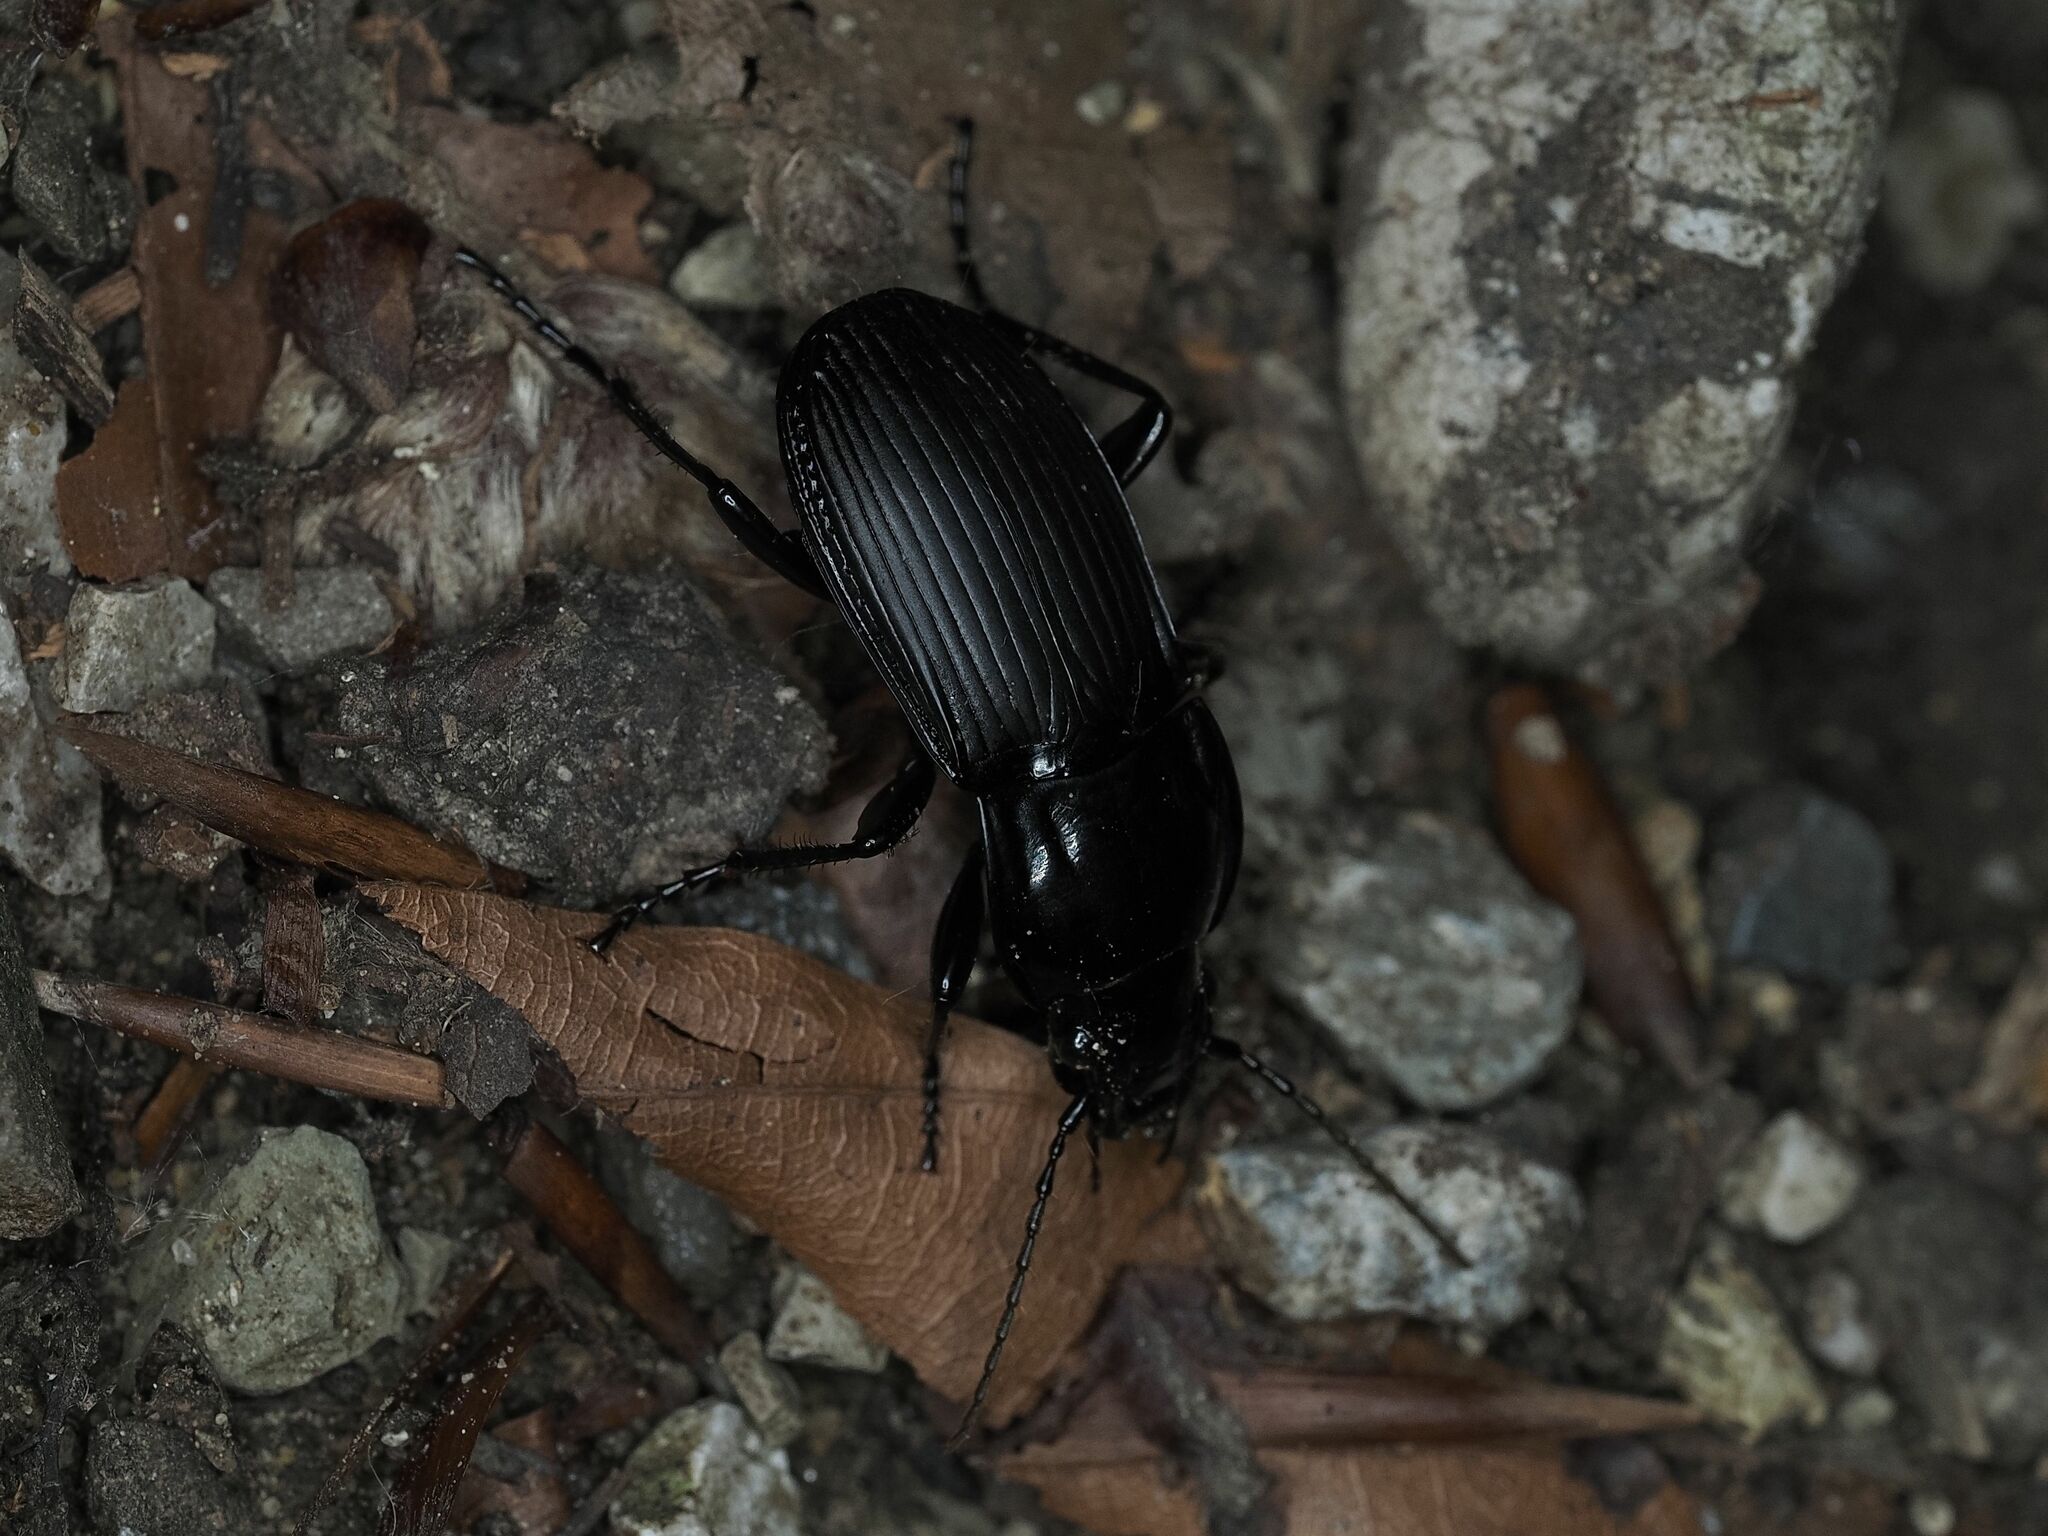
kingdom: Animalia
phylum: Arthropoda
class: Insecta
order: Coleoptera
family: Carabidae
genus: Abax
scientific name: Abax parallelepipedus
